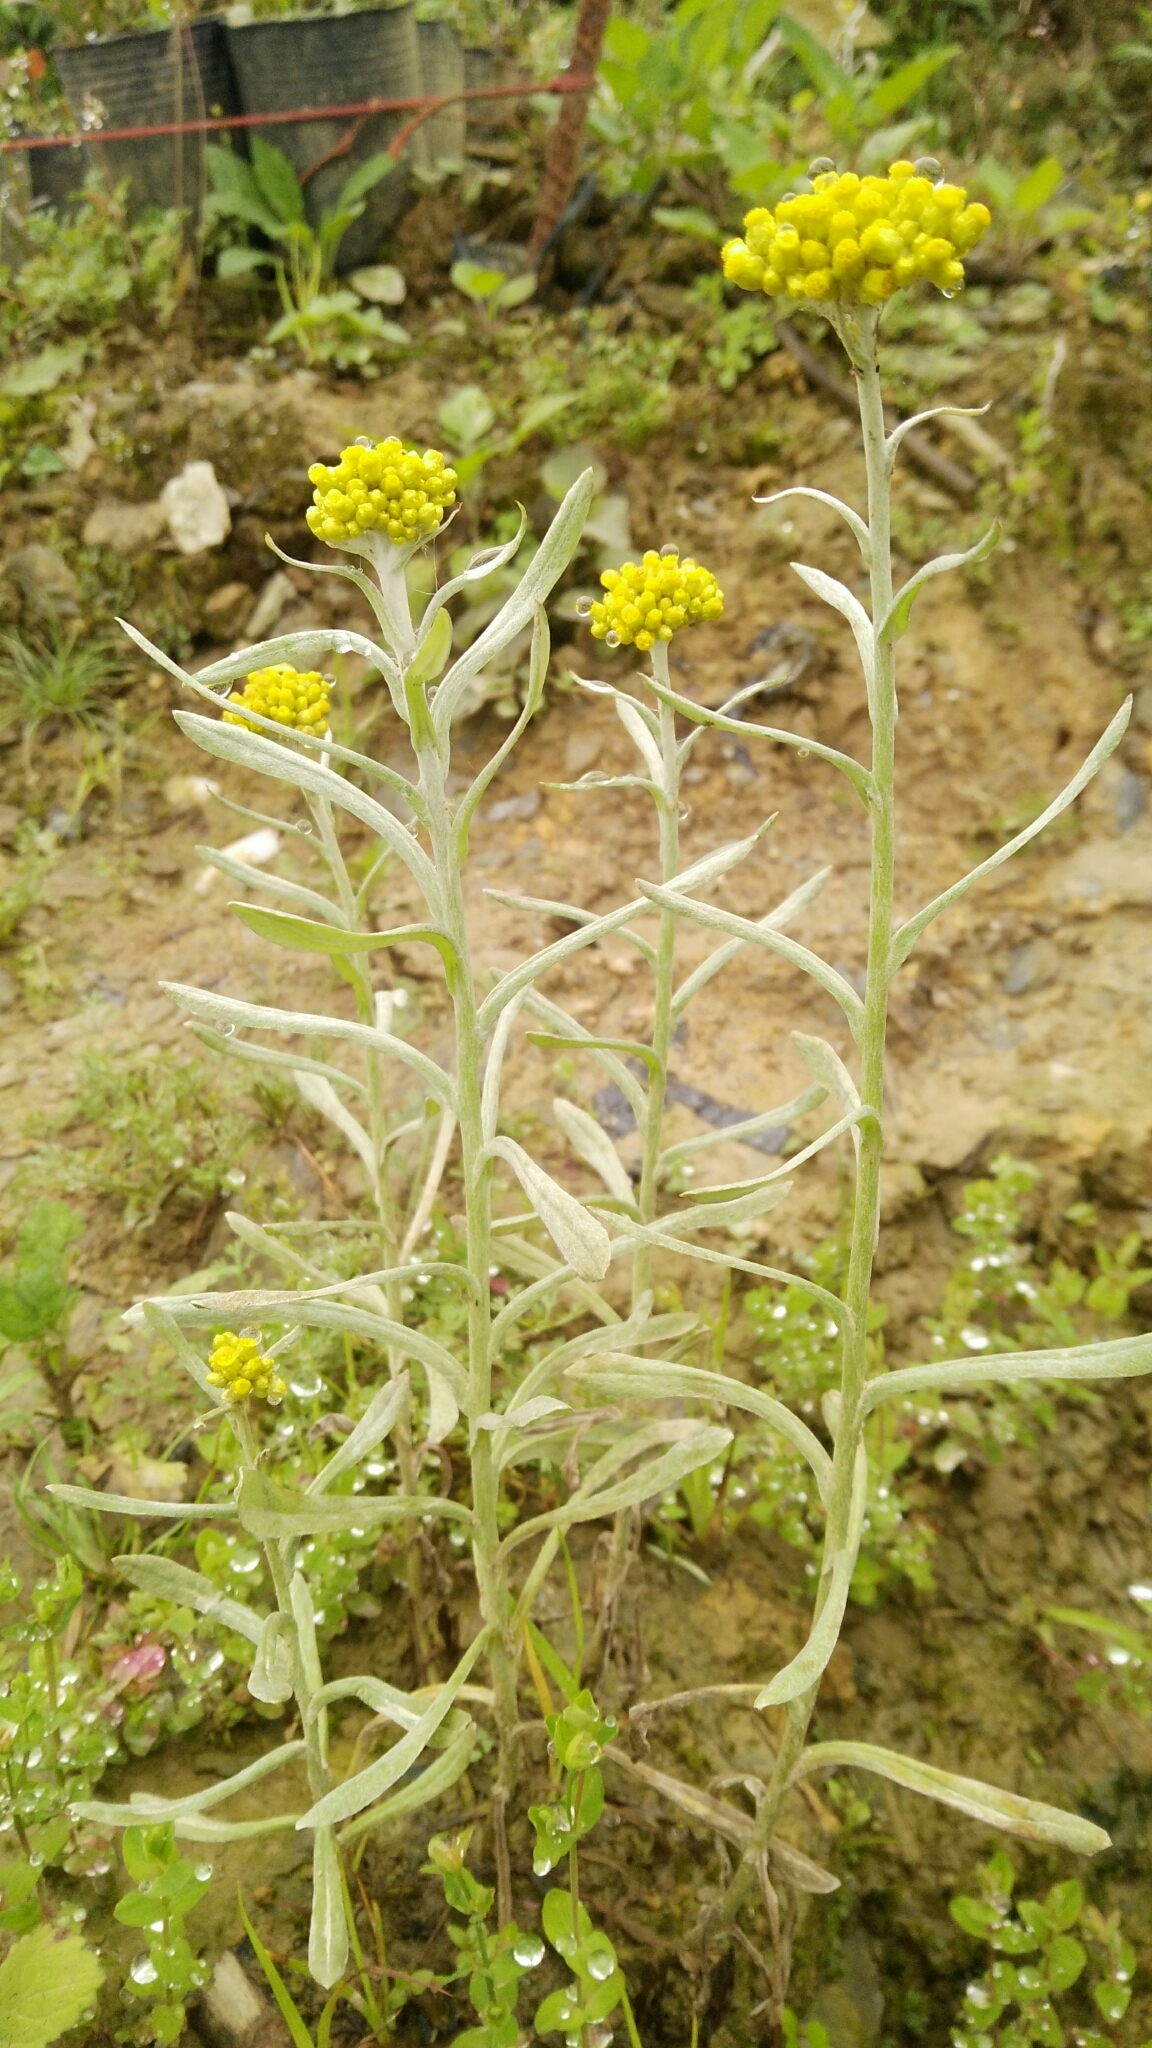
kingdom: Plantae
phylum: Tracheophyta
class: Magnoliopsida
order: Asterales
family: Asteraceae
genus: Pseudognaphalium
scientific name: Pseudognaphalium affine
